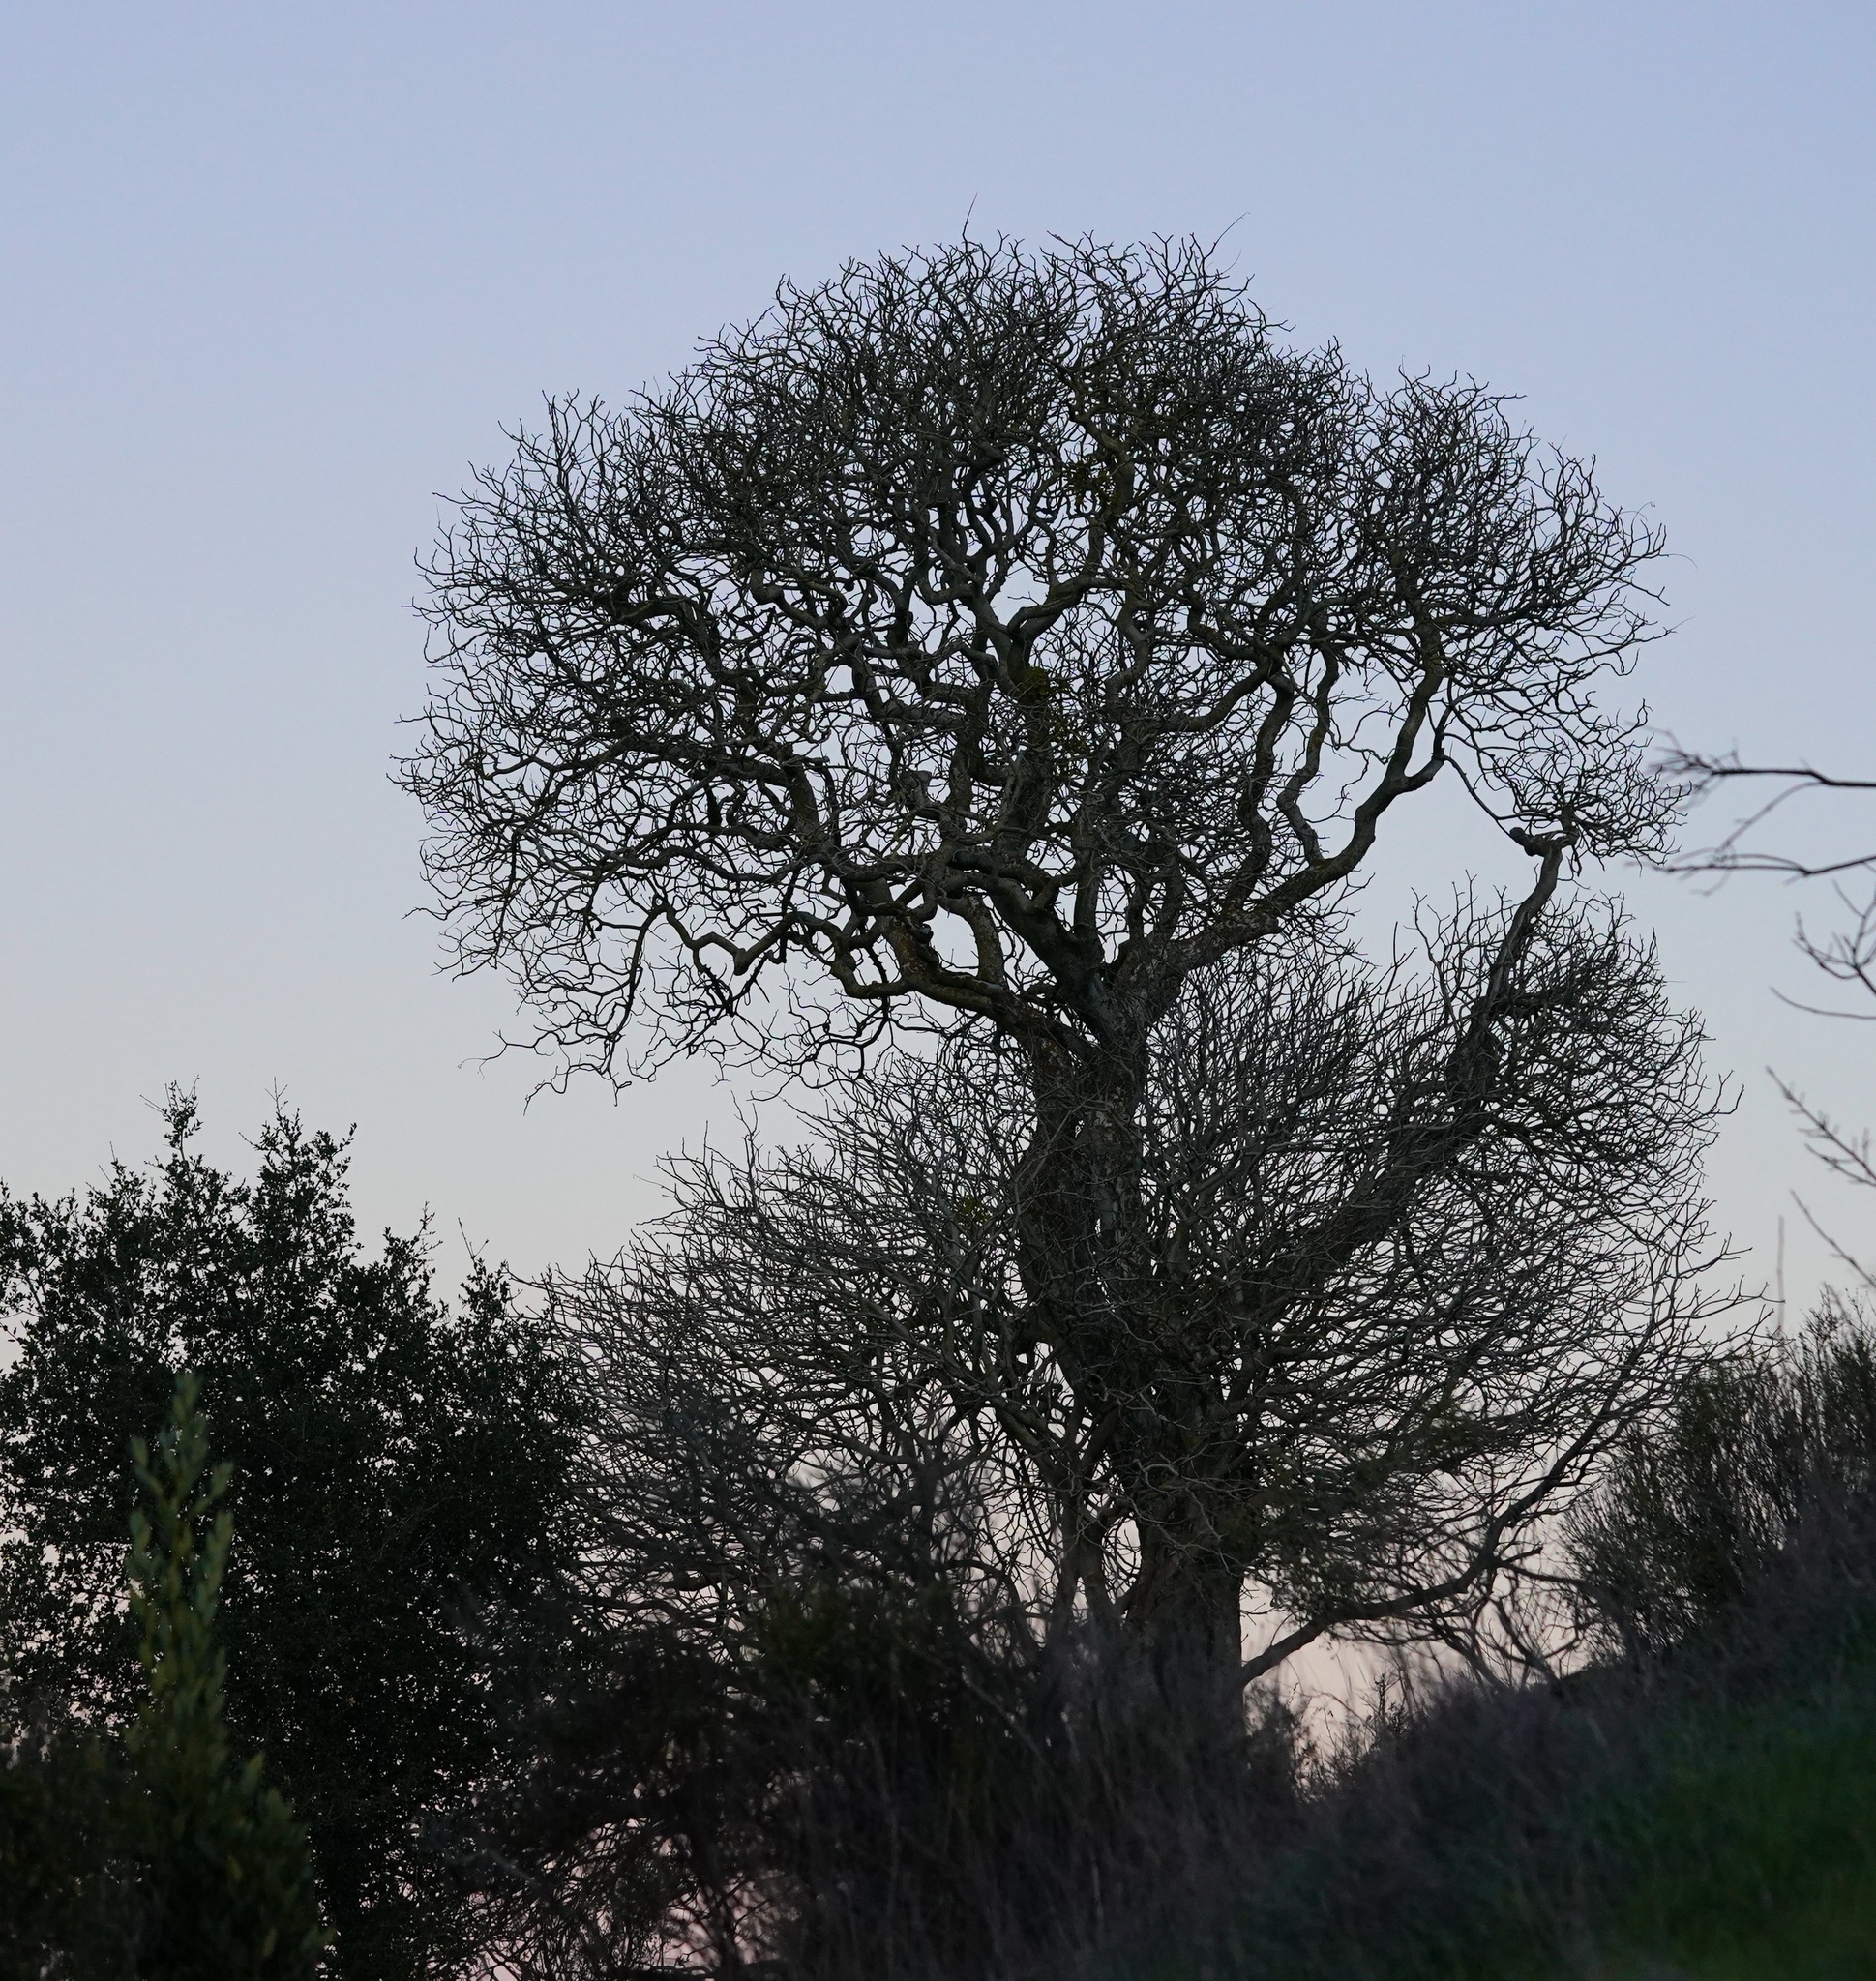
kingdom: Plantae
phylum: Tracheophyta
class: Magnoliopsida
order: Sapindales
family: Sapindaceae
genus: Aesculus
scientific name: Aesculus californica
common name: California buckeye
